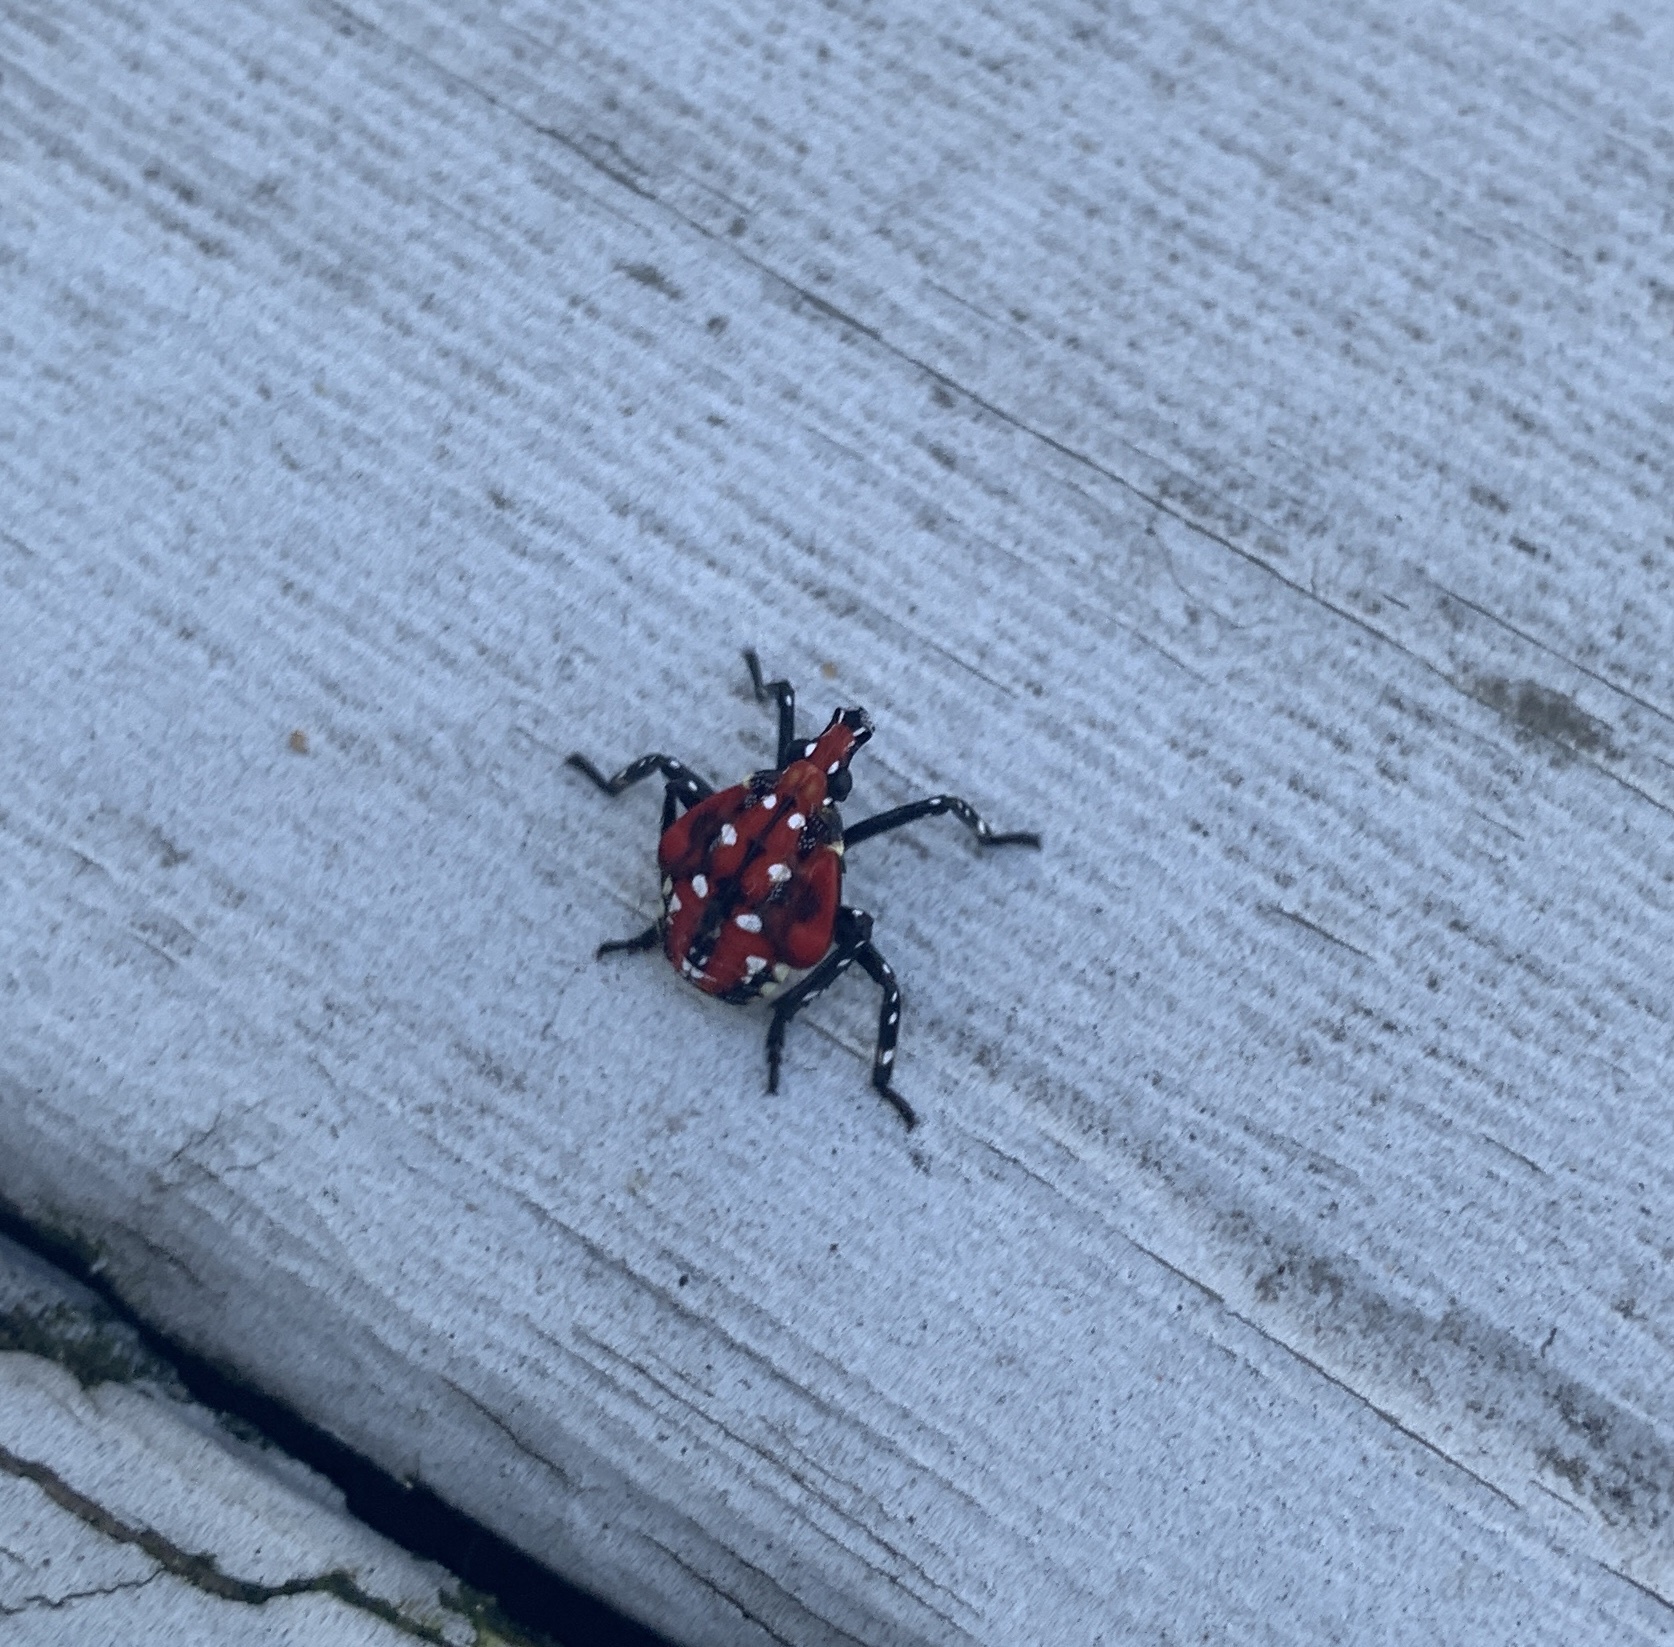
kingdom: Animalia
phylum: Arthropoda
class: Insecta
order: Hemiptera
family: Fulgoridae
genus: Lycorma
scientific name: Lycorma delicatula
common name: Spotted lanternfly
